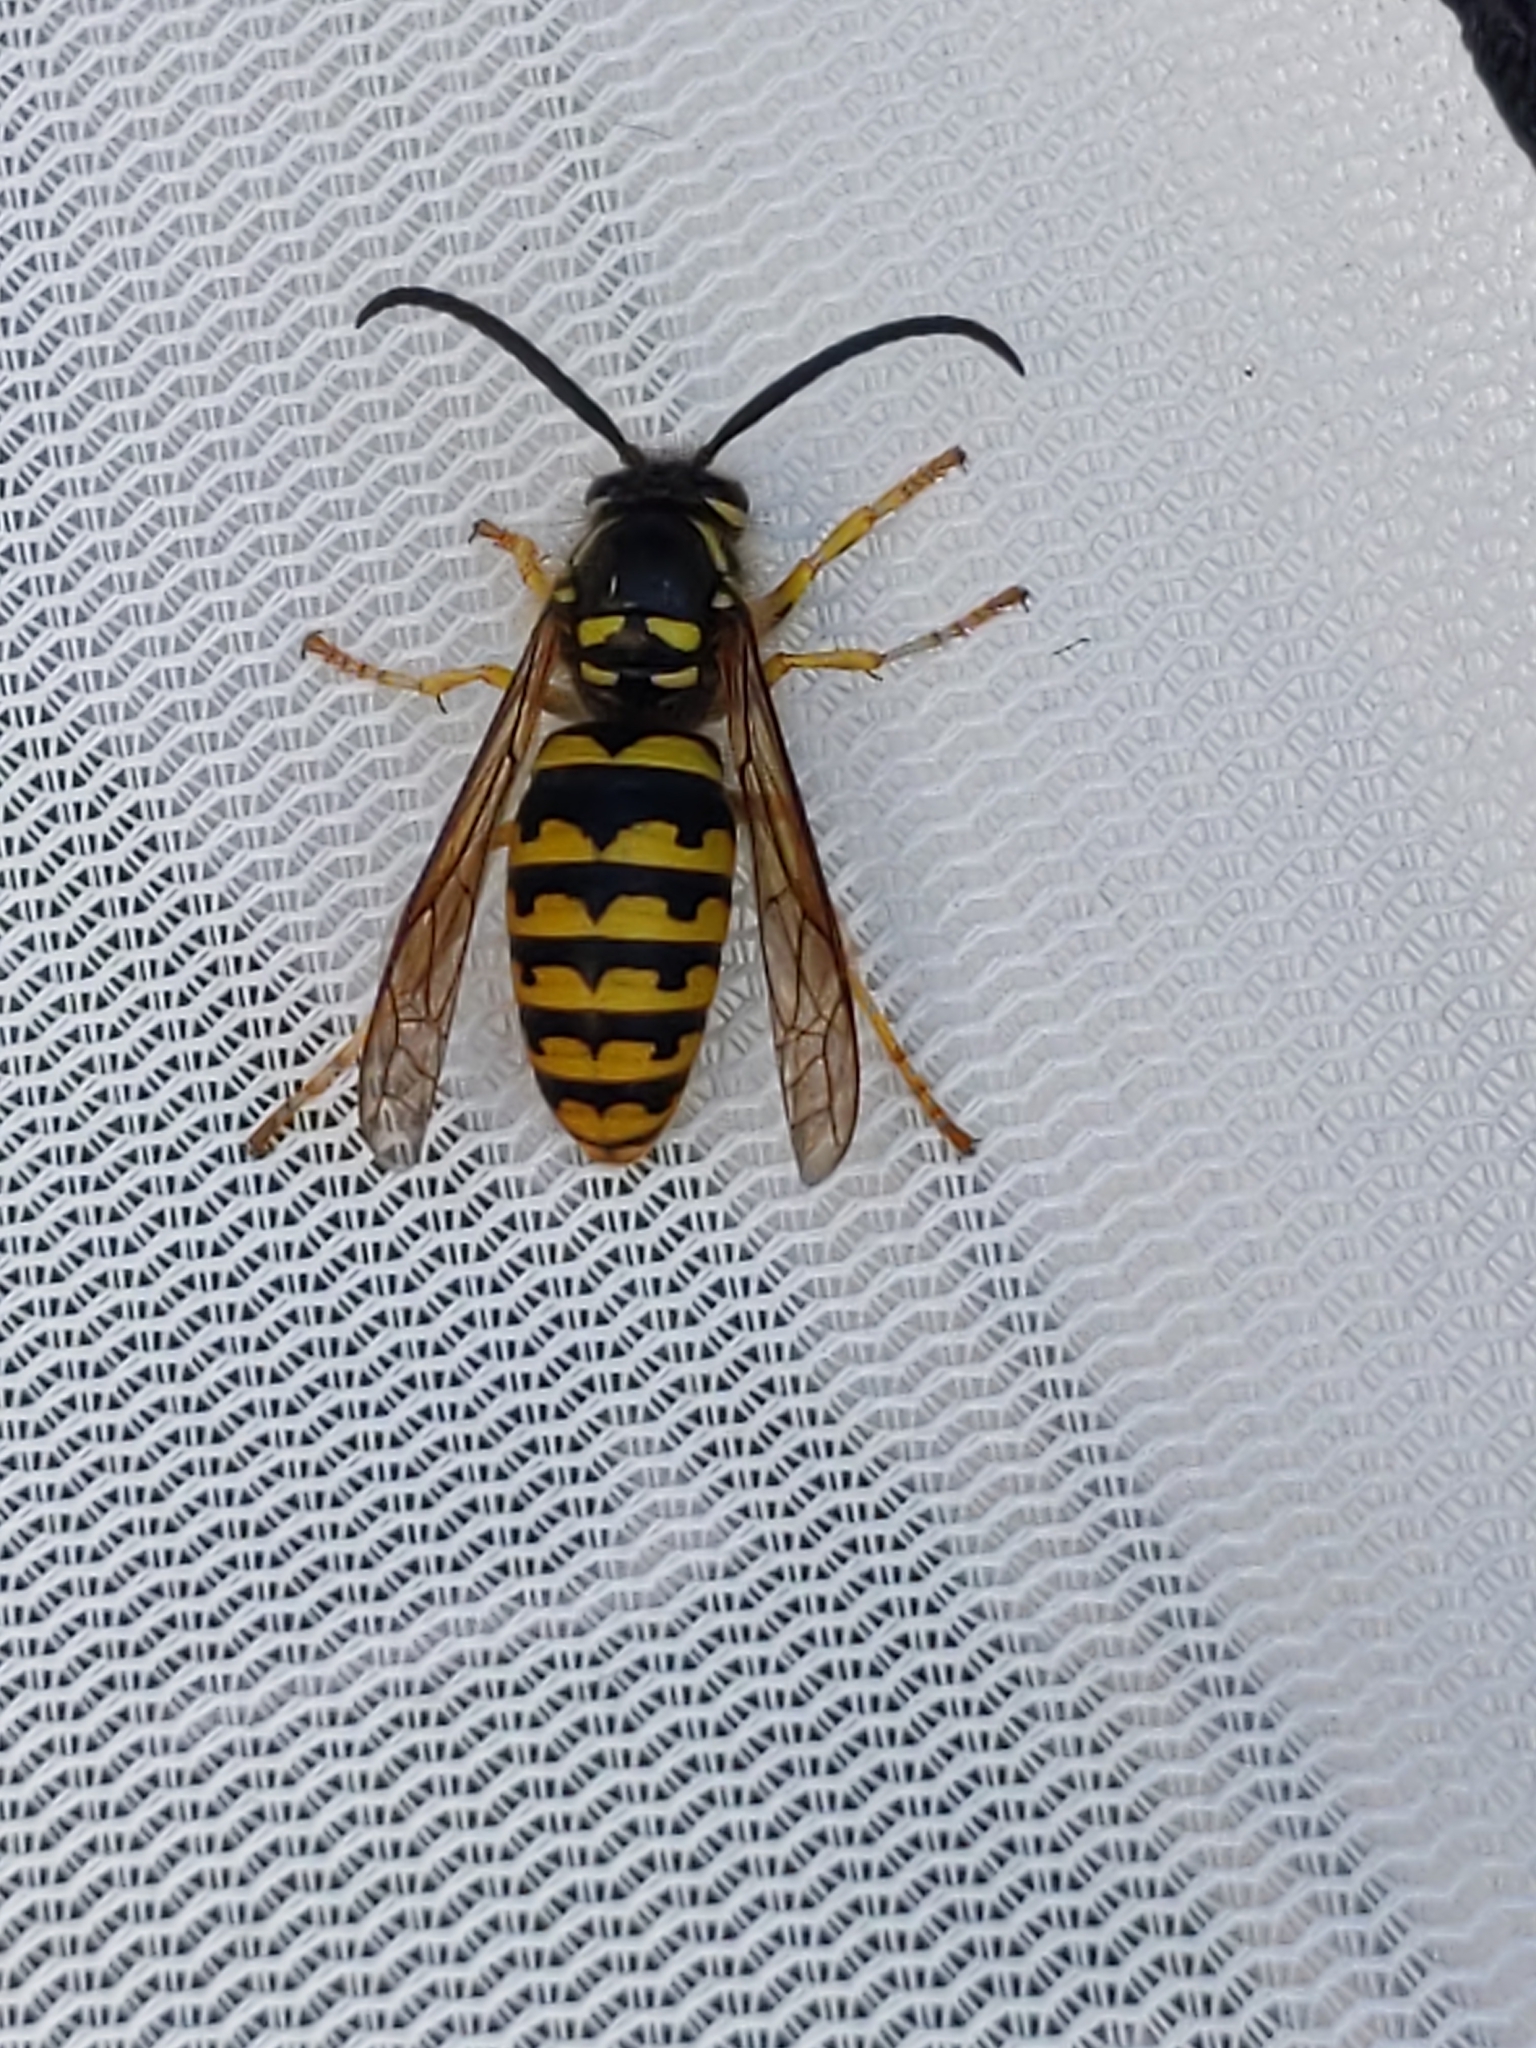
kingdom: Animalia
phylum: Arthropoda
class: Insecta
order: Hymenoptera
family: Vespidae
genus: Dolichovespula
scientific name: Dolichovespula arenaria
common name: Aerial yellowjacket
